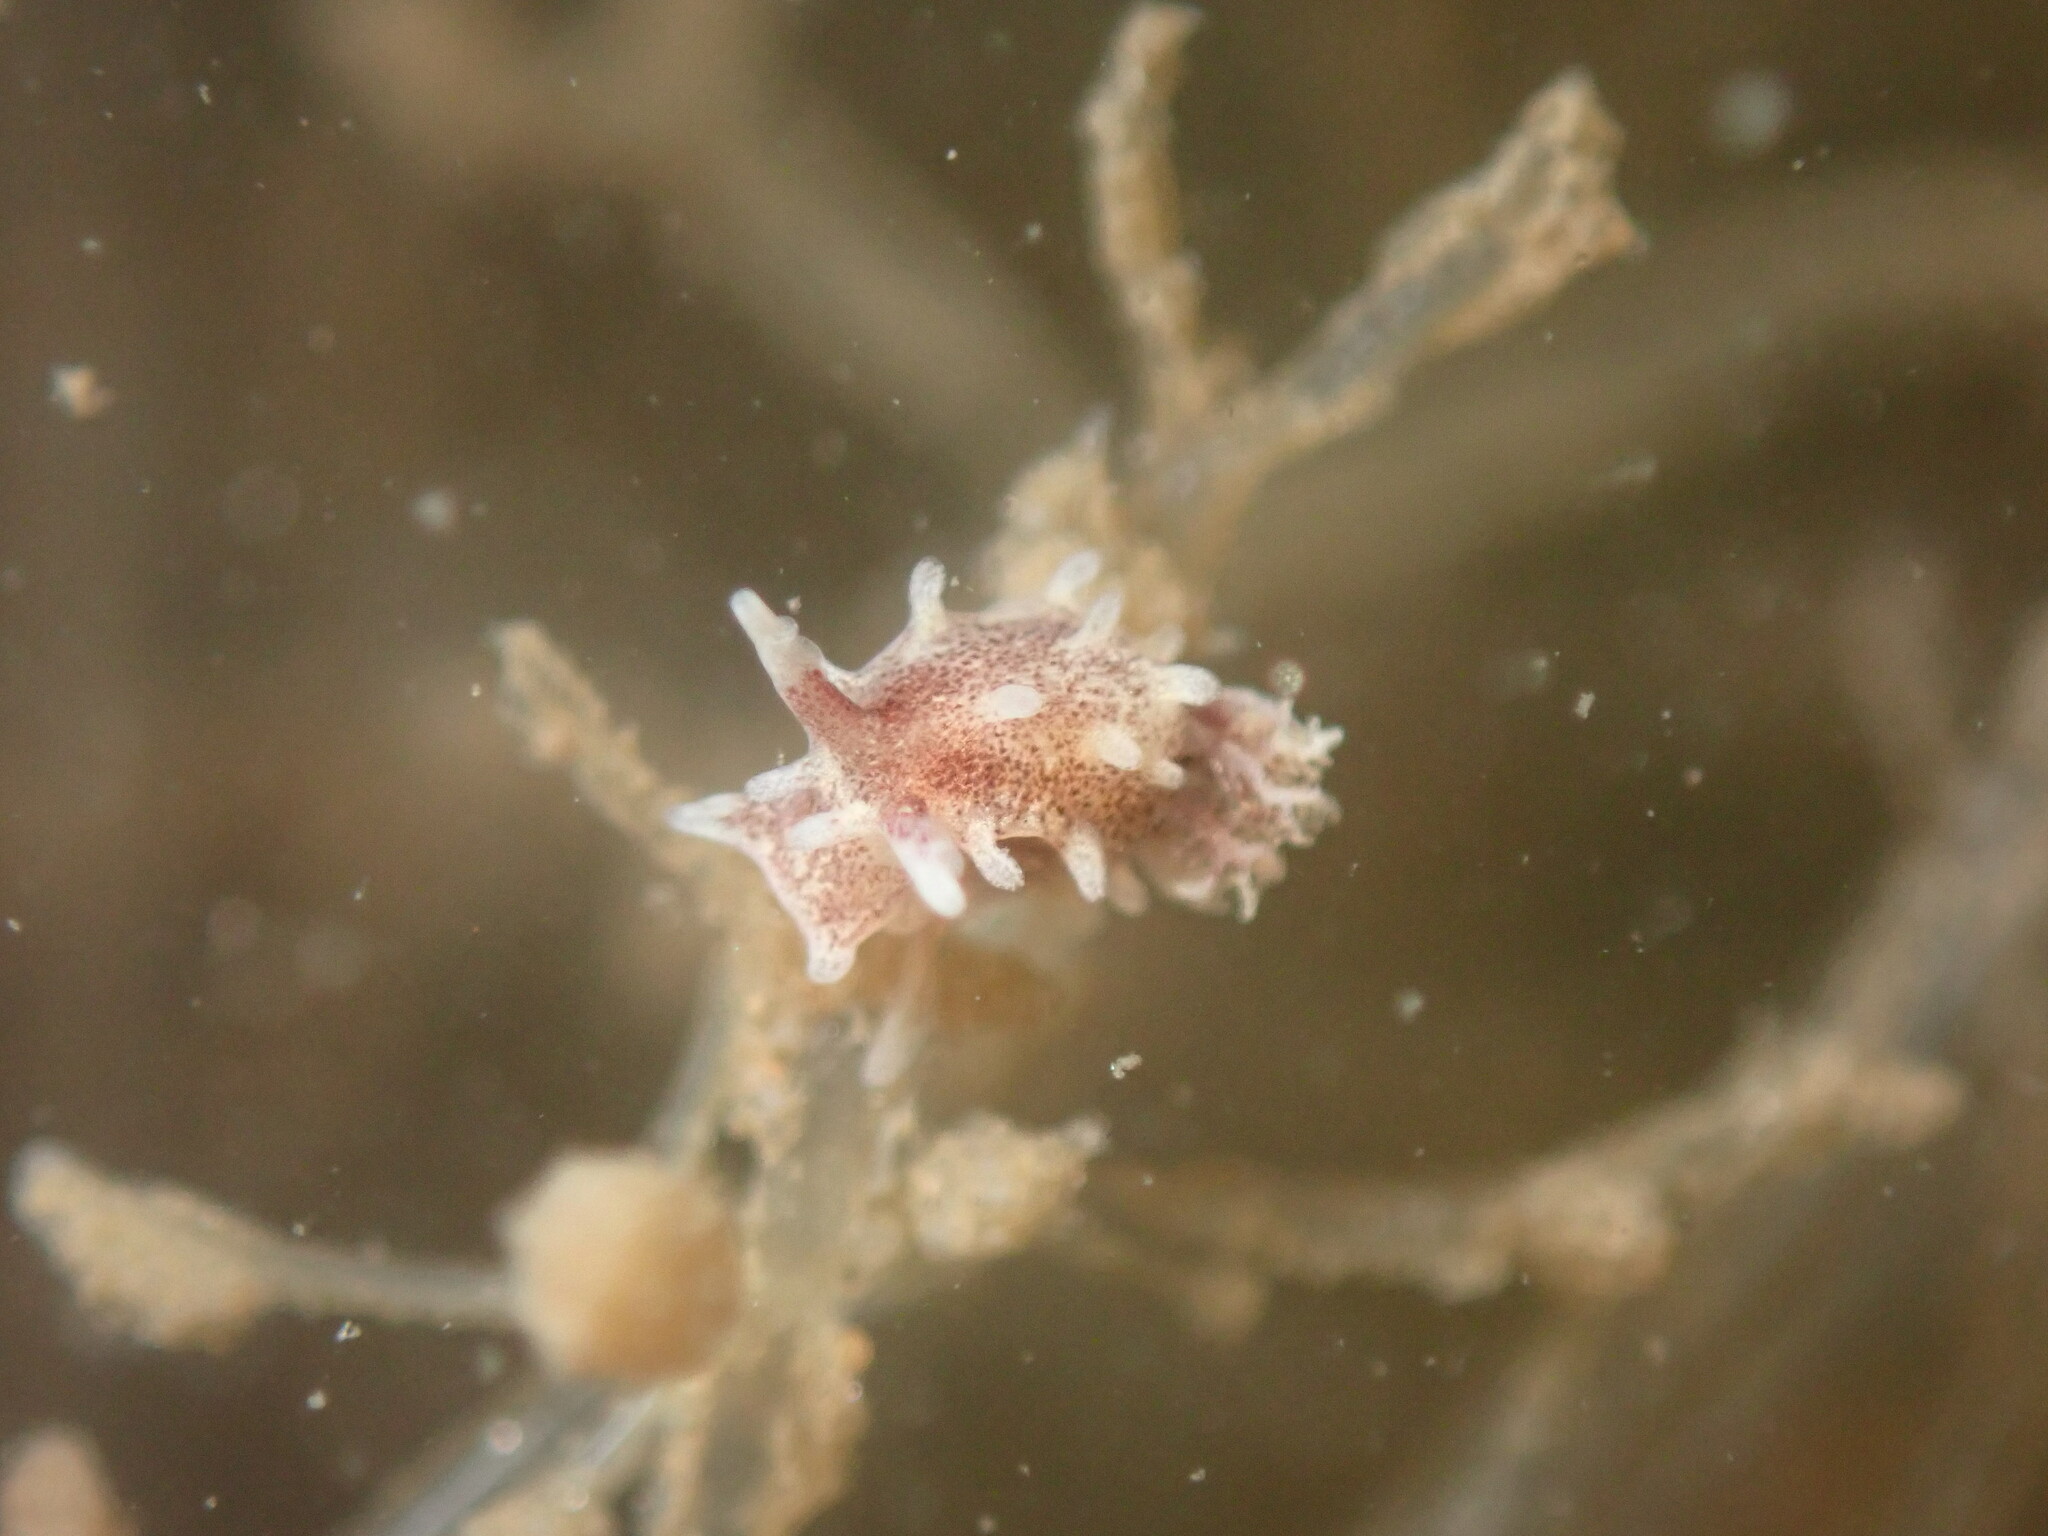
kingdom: Animalia
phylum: Mollusca
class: Gastropoda
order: Nudibranchia
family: Goniodorididae
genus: Okenia
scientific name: Okenia
